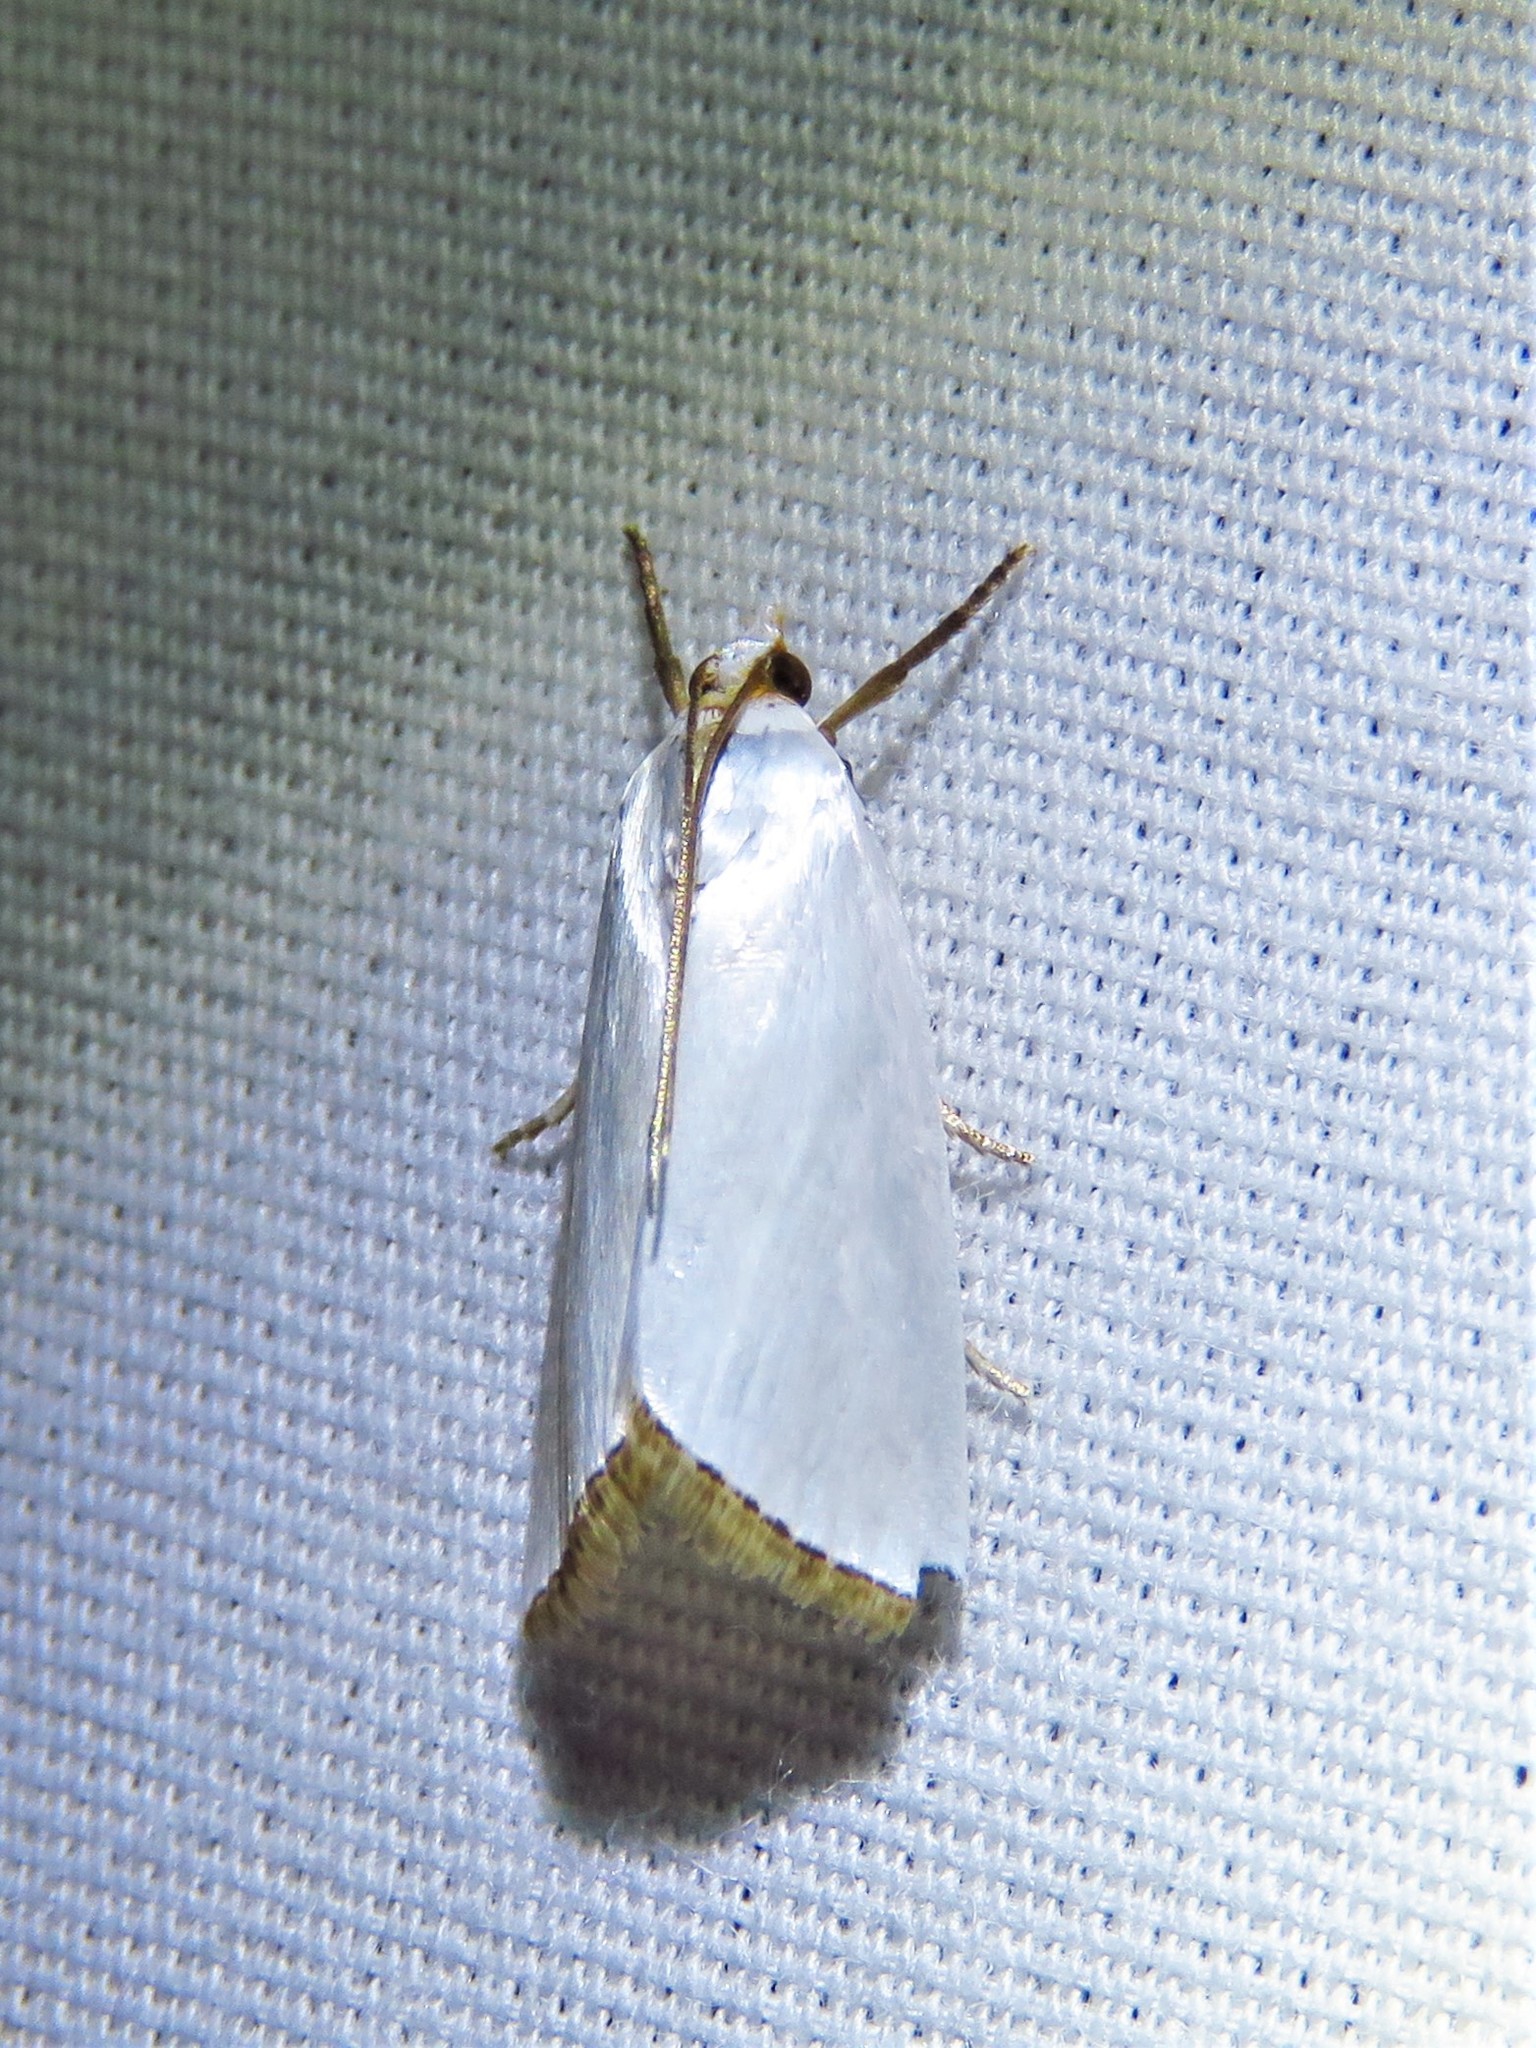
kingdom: Animalia
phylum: Arthropoda
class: Insecta
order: Lepidoptera
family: Crambidae
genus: Argyria
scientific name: Argyria nivalis
